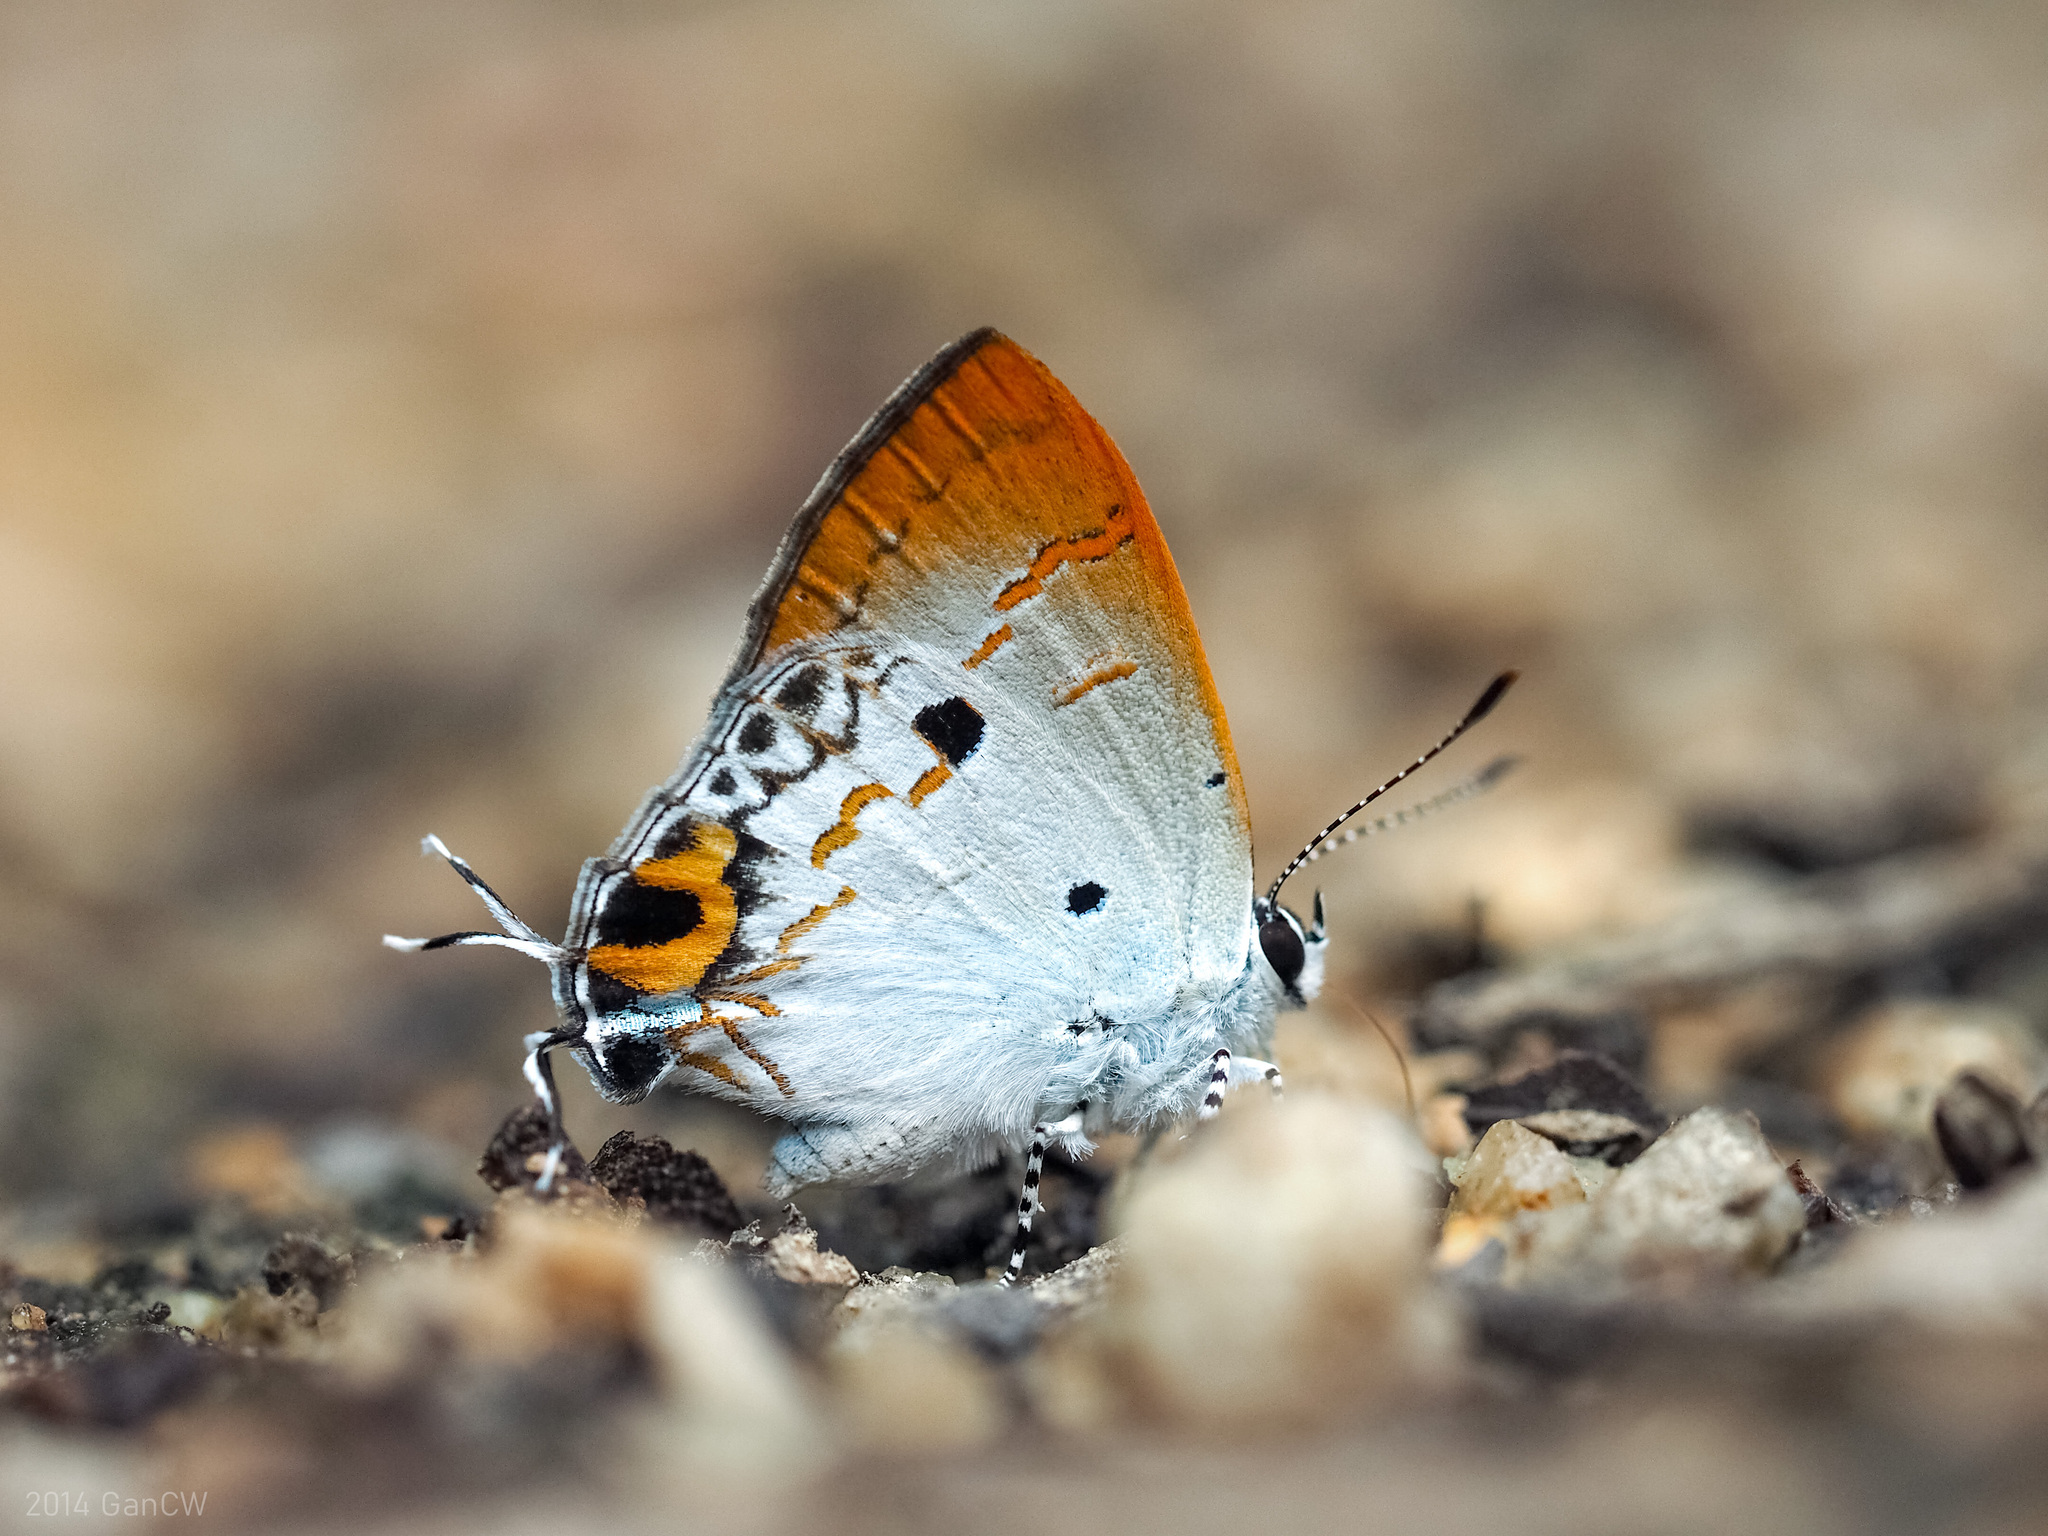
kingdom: Animalia
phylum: Arthropoda
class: Insecta
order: Lepidoptera
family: Lycaenidae
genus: Chliaria
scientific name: Chliaria othona
